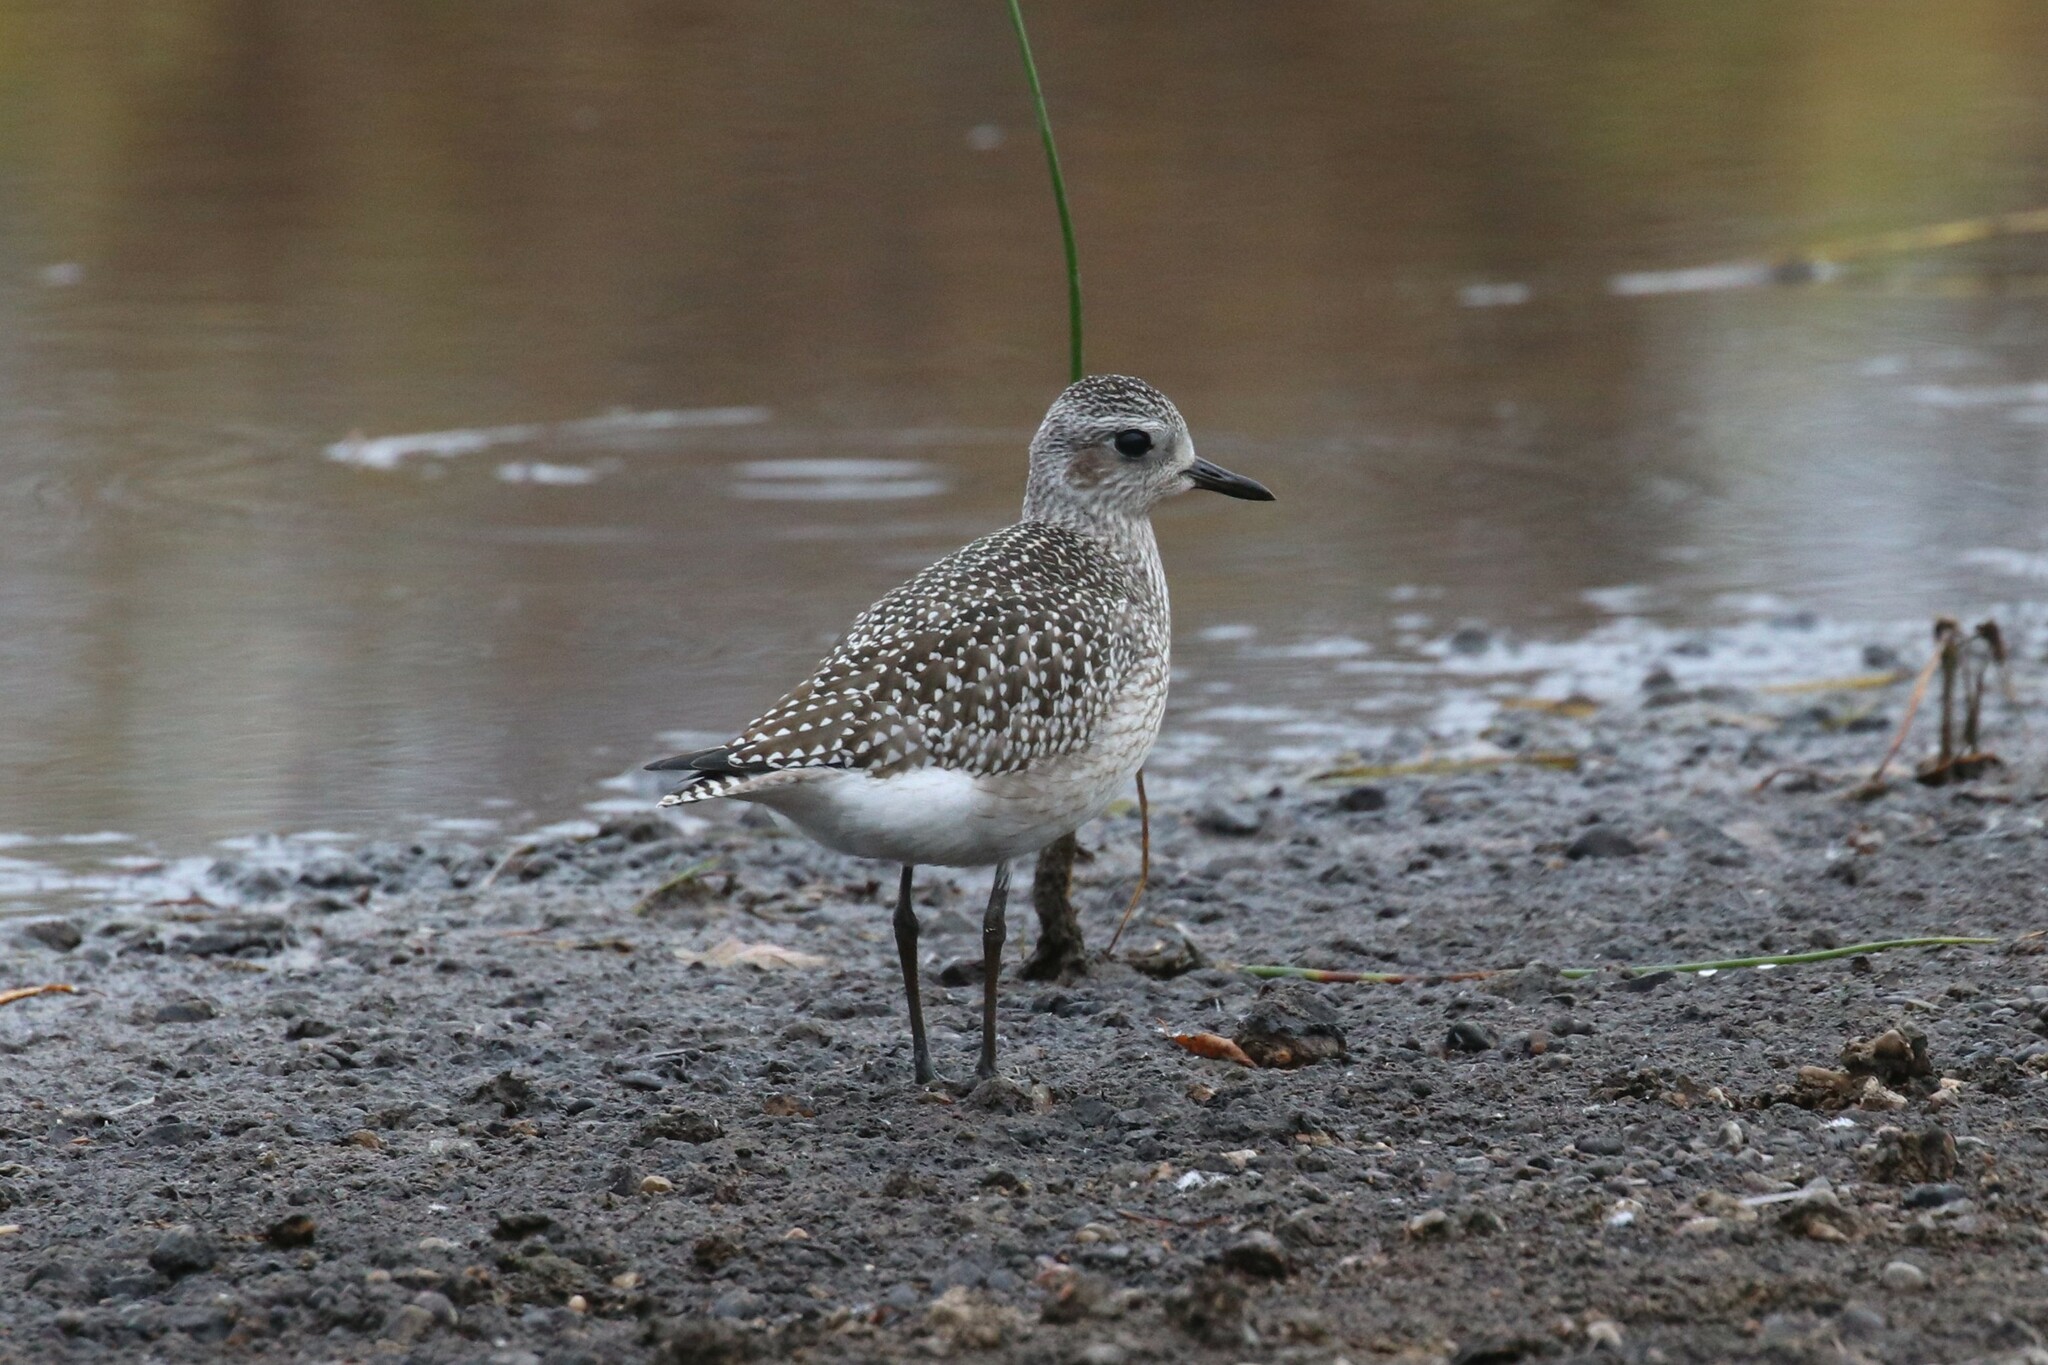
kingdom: Animalia
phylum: Chordata
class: Aves
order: Charadriiformes
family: Charadriidae
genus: Pluvialis
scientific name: Pluvialis squatarola
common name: Grey plover
